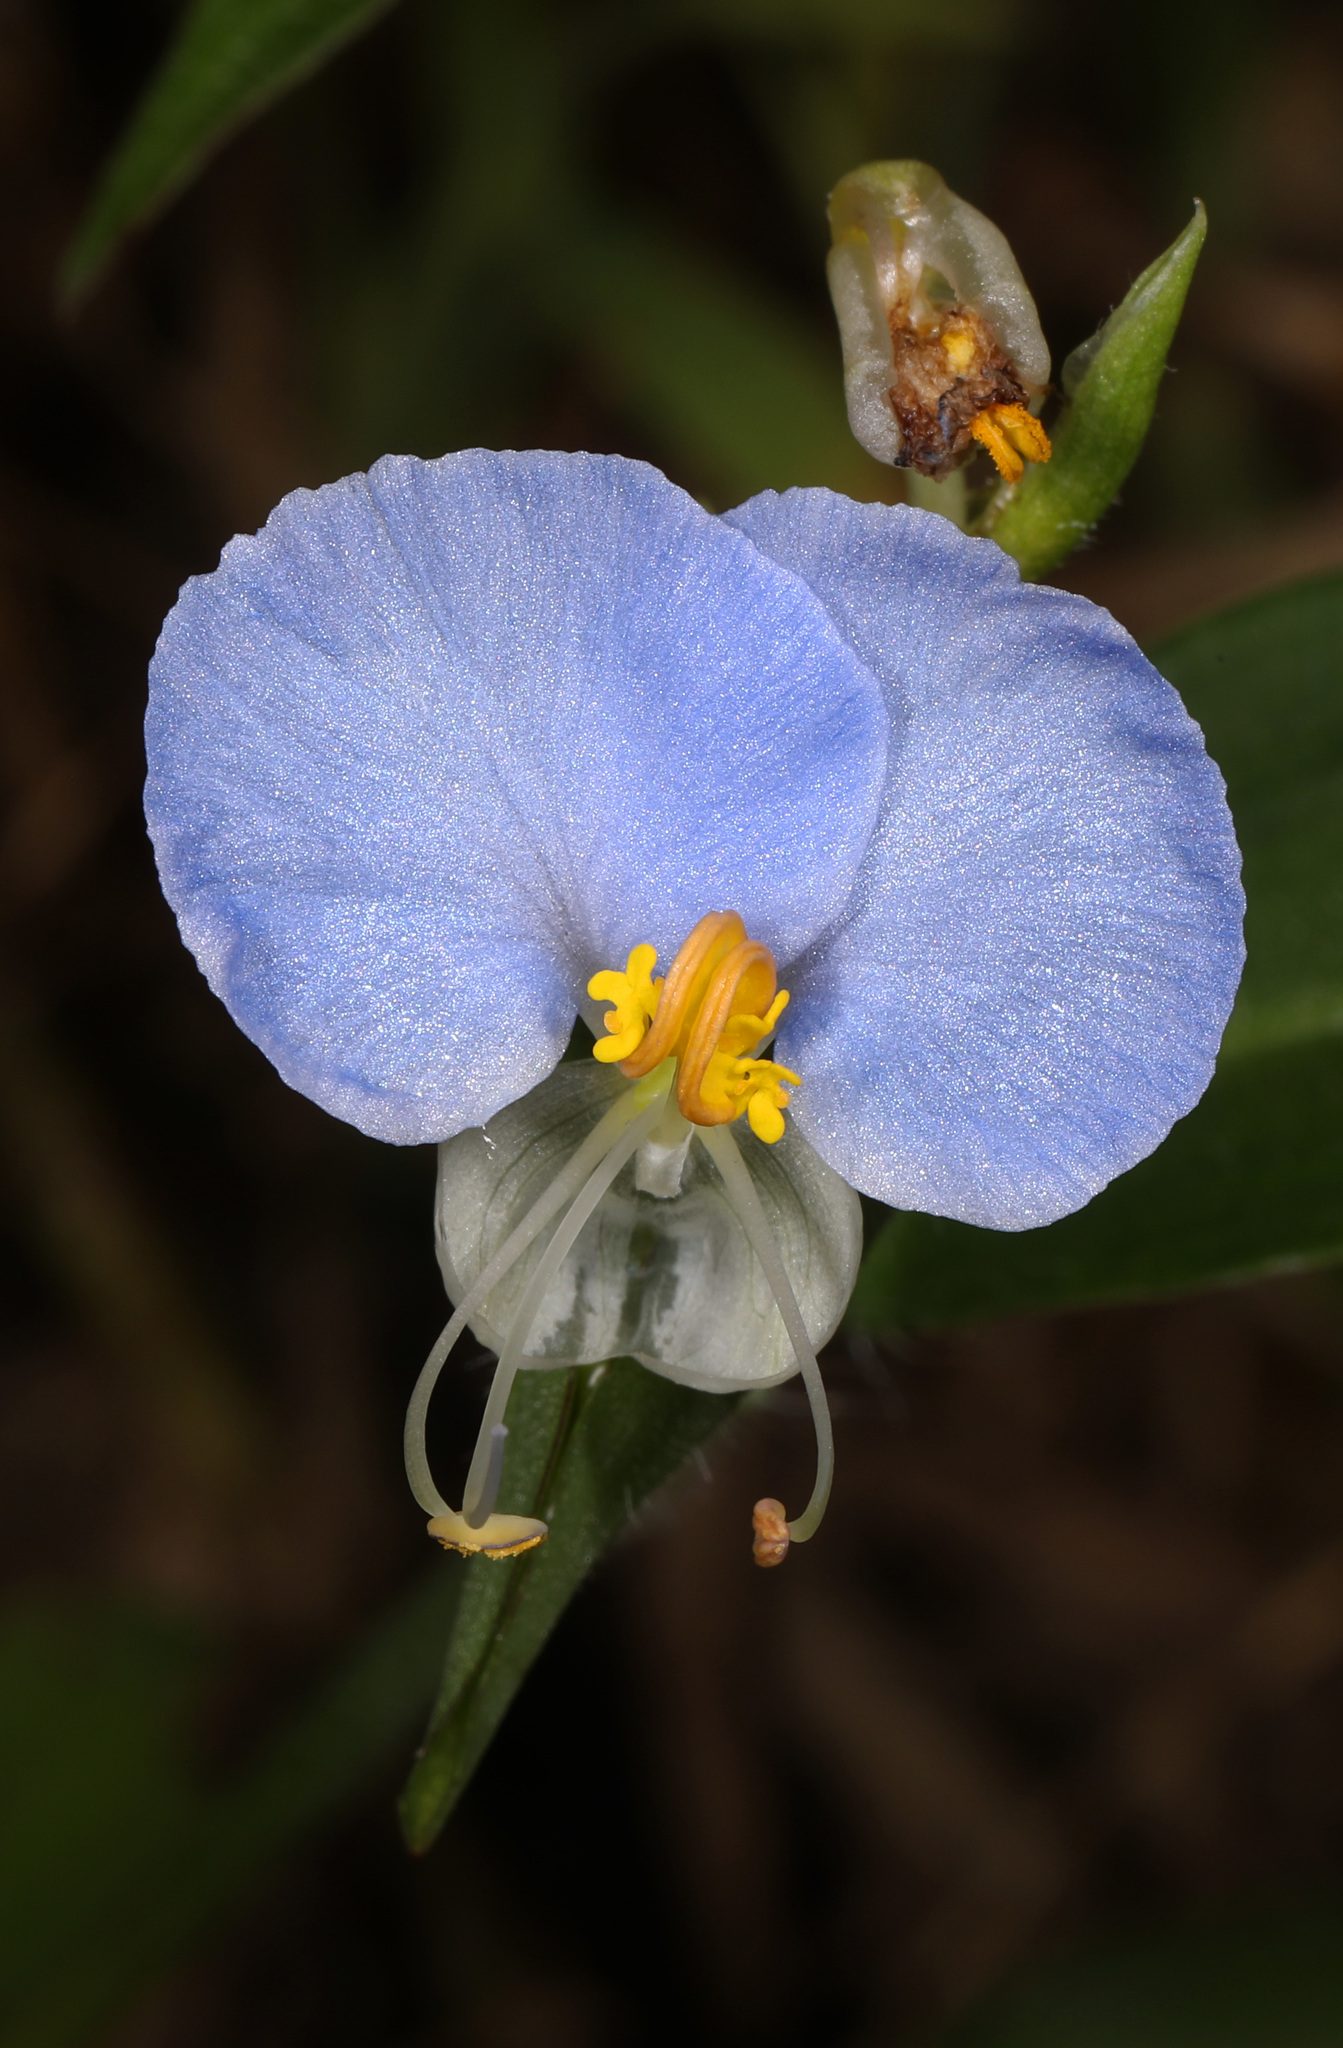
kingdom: Plantae
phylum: Tracheophyta
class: Liliopsida
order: Commelinales
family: Commelinaceae
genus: Commelina
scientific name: Commelina erecta
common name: Blousel blommetjie
